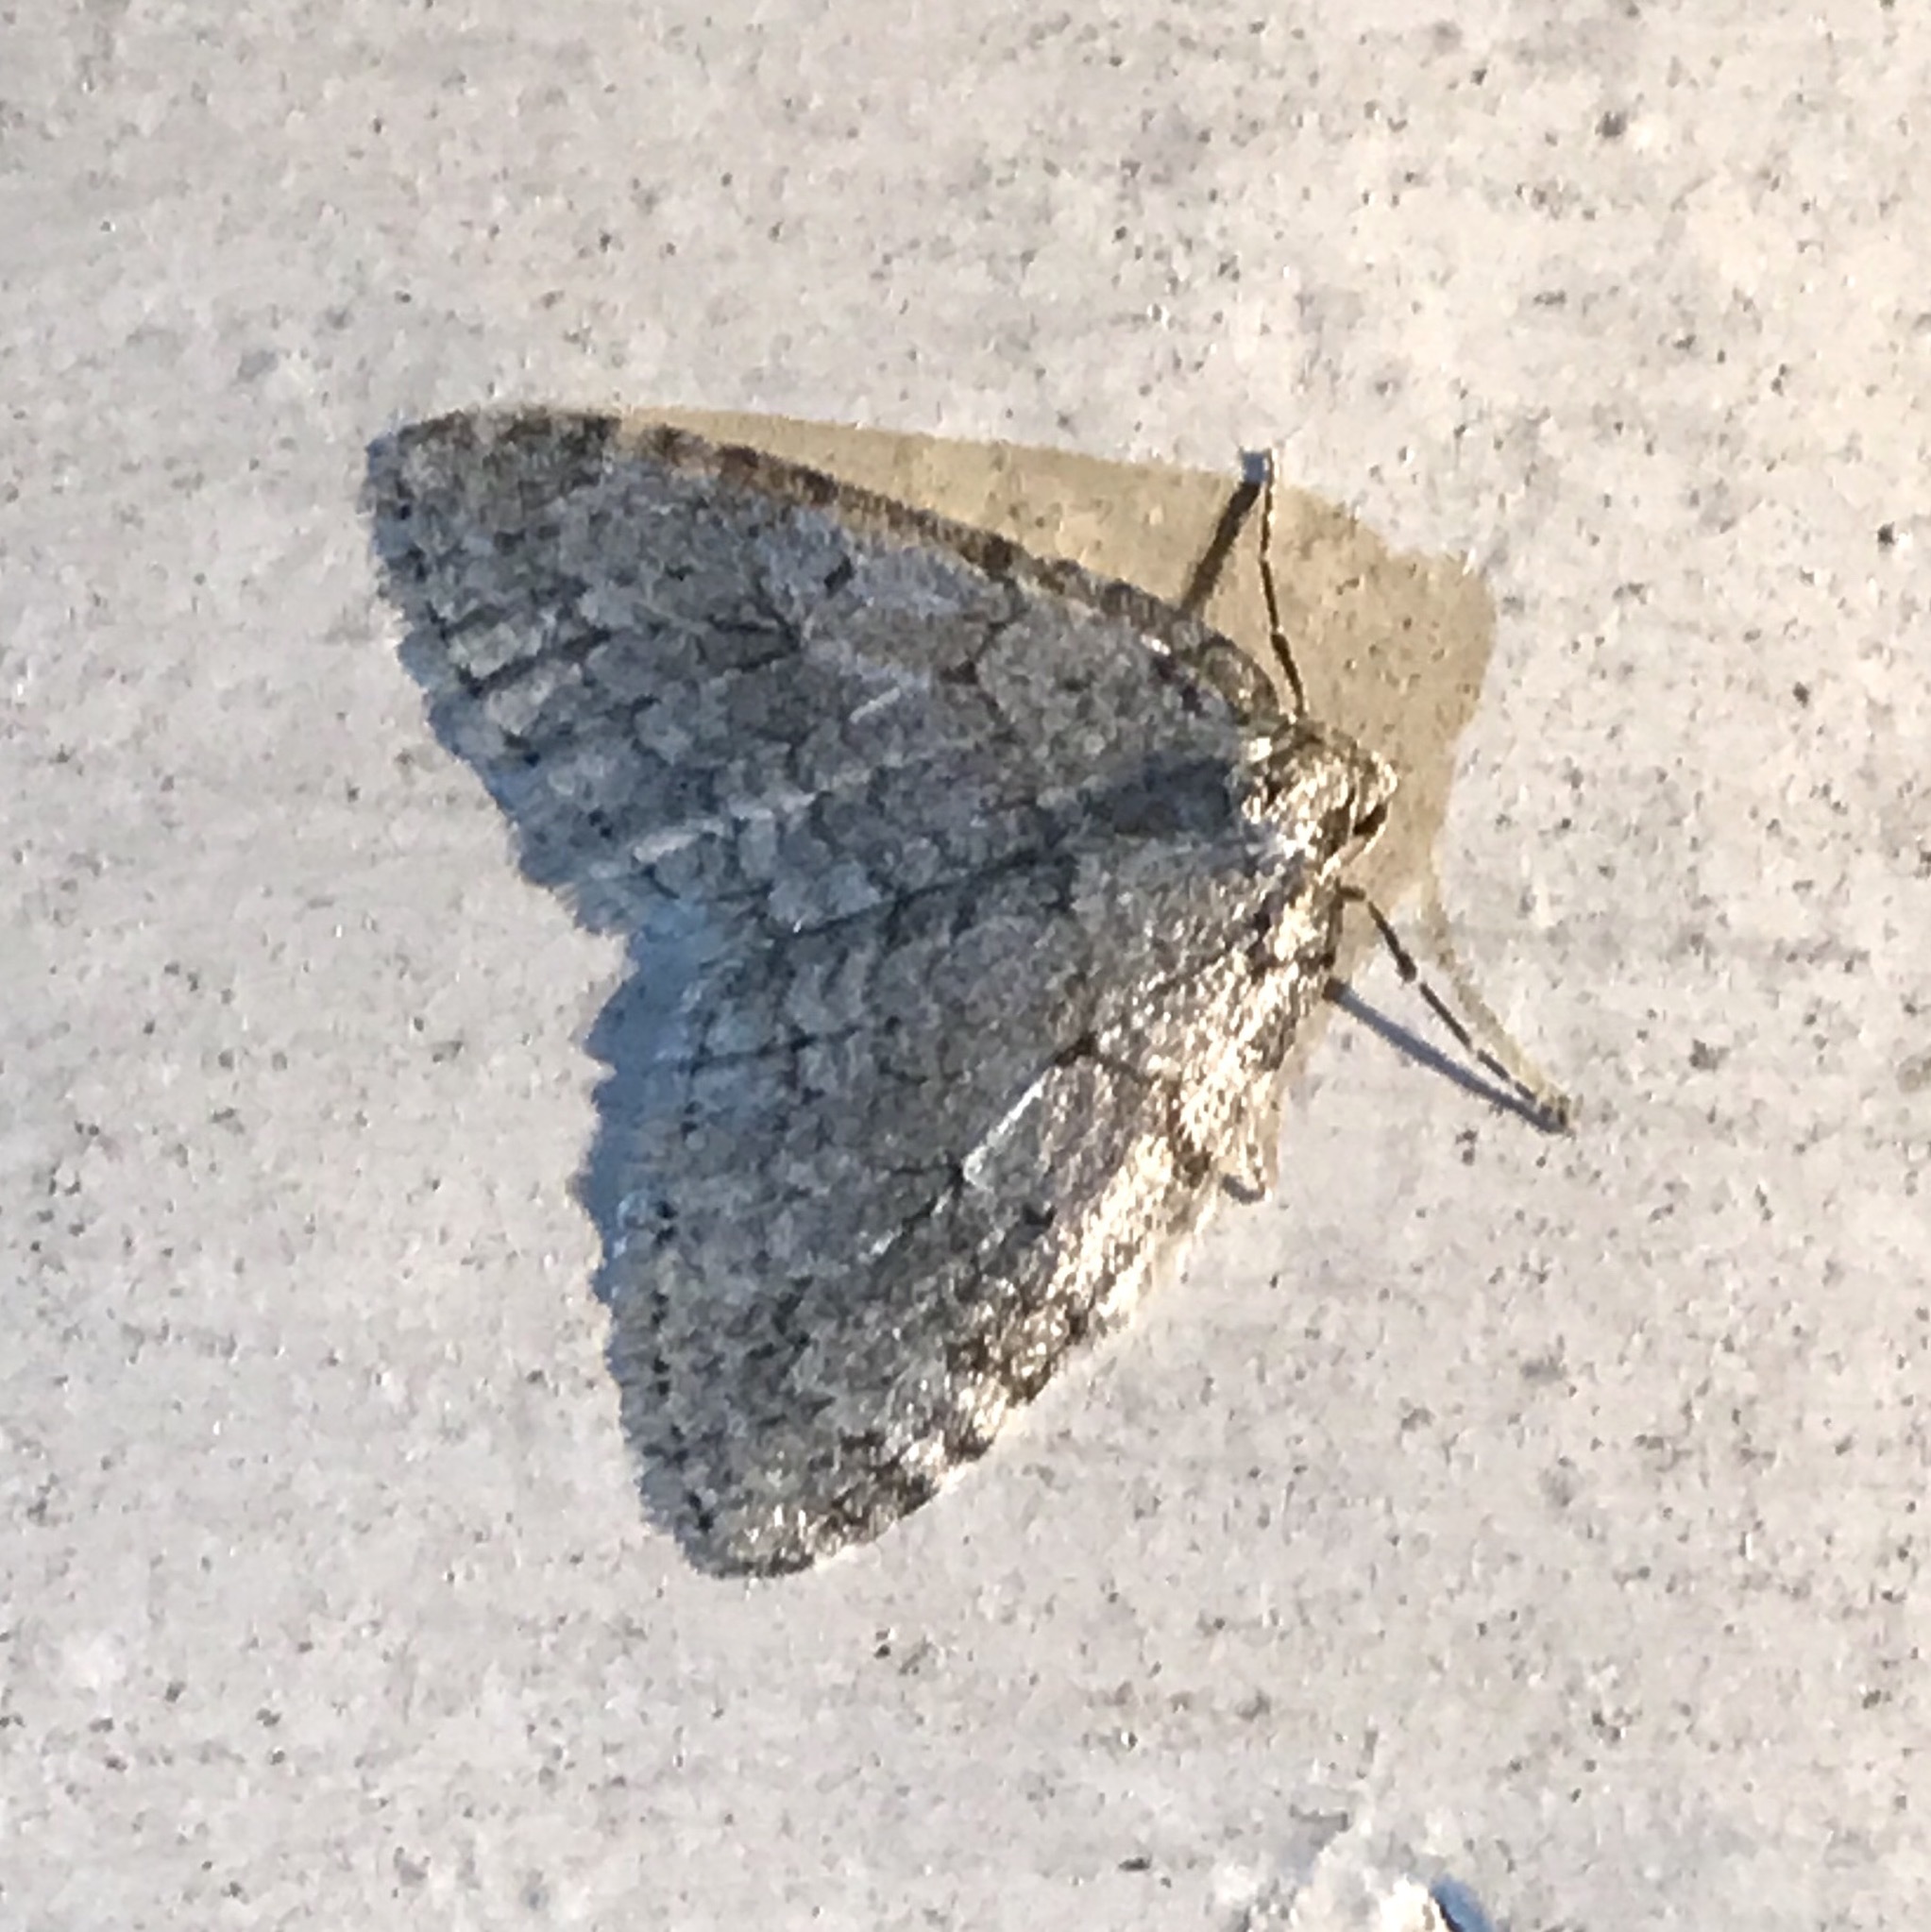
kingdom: Animalia
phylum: Arthropoda
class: Insecta
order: Lepidoptera
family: Geometridae
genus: Epirrita
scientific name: Epirrita autumnata
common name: Autumnal moth
